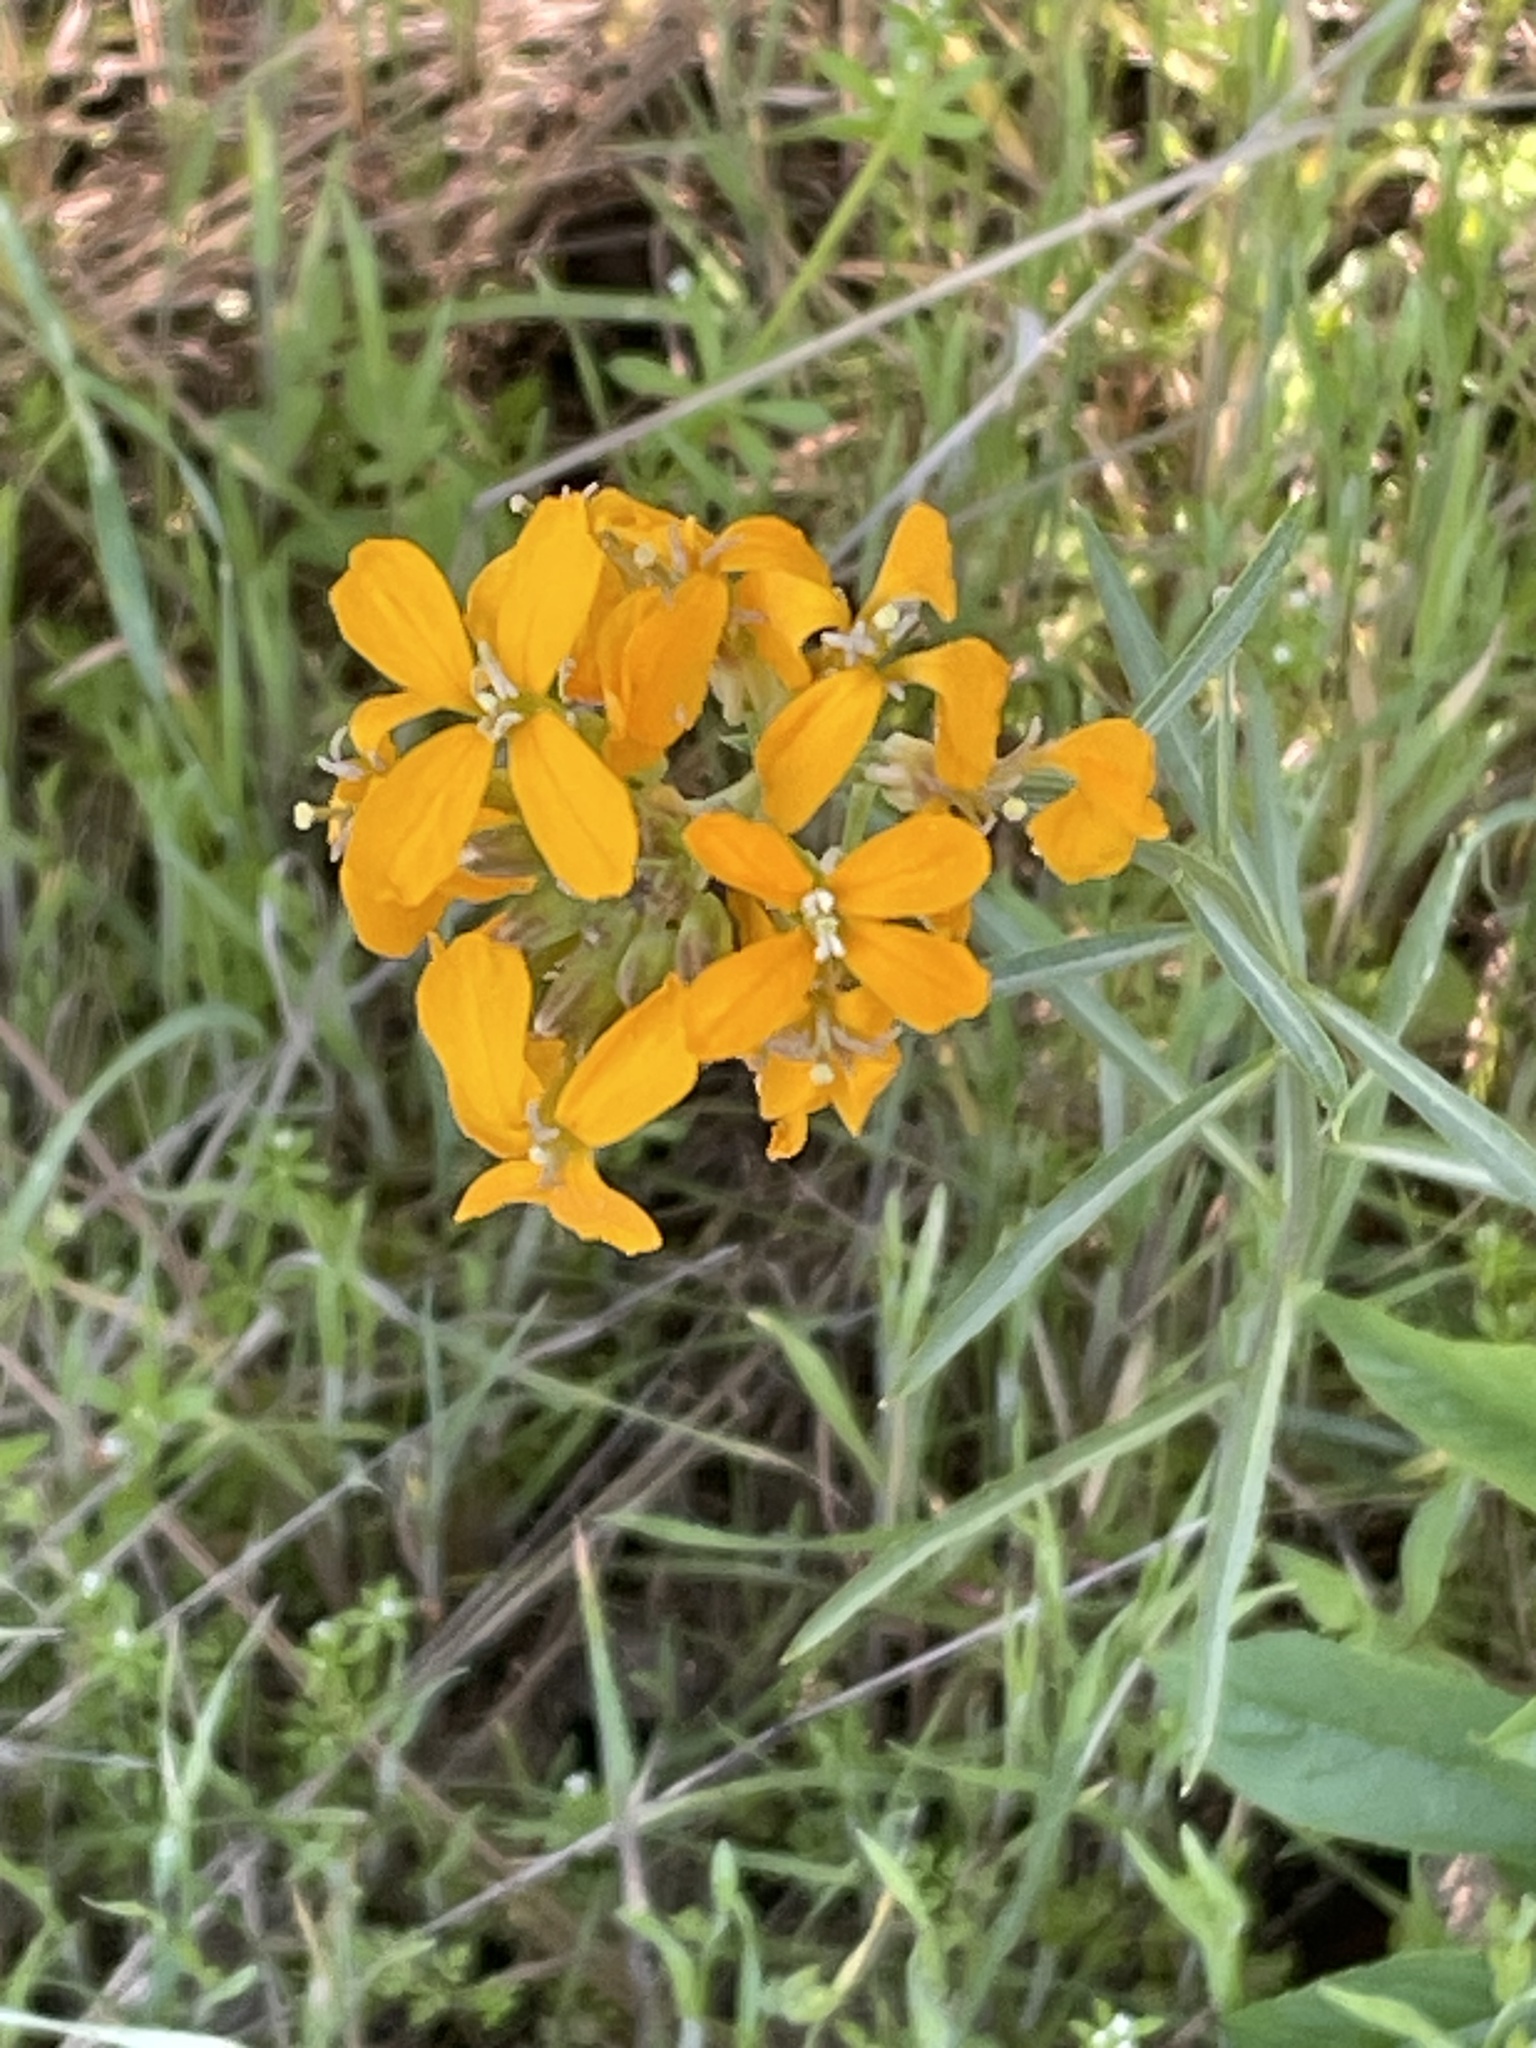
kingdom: Plantae
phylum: Tracheophyta
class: Magnoliopsida
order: Brassicales
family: Brassicaceae
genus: Erysimum
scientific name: Erysimum capitatum
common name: Western wallflower
